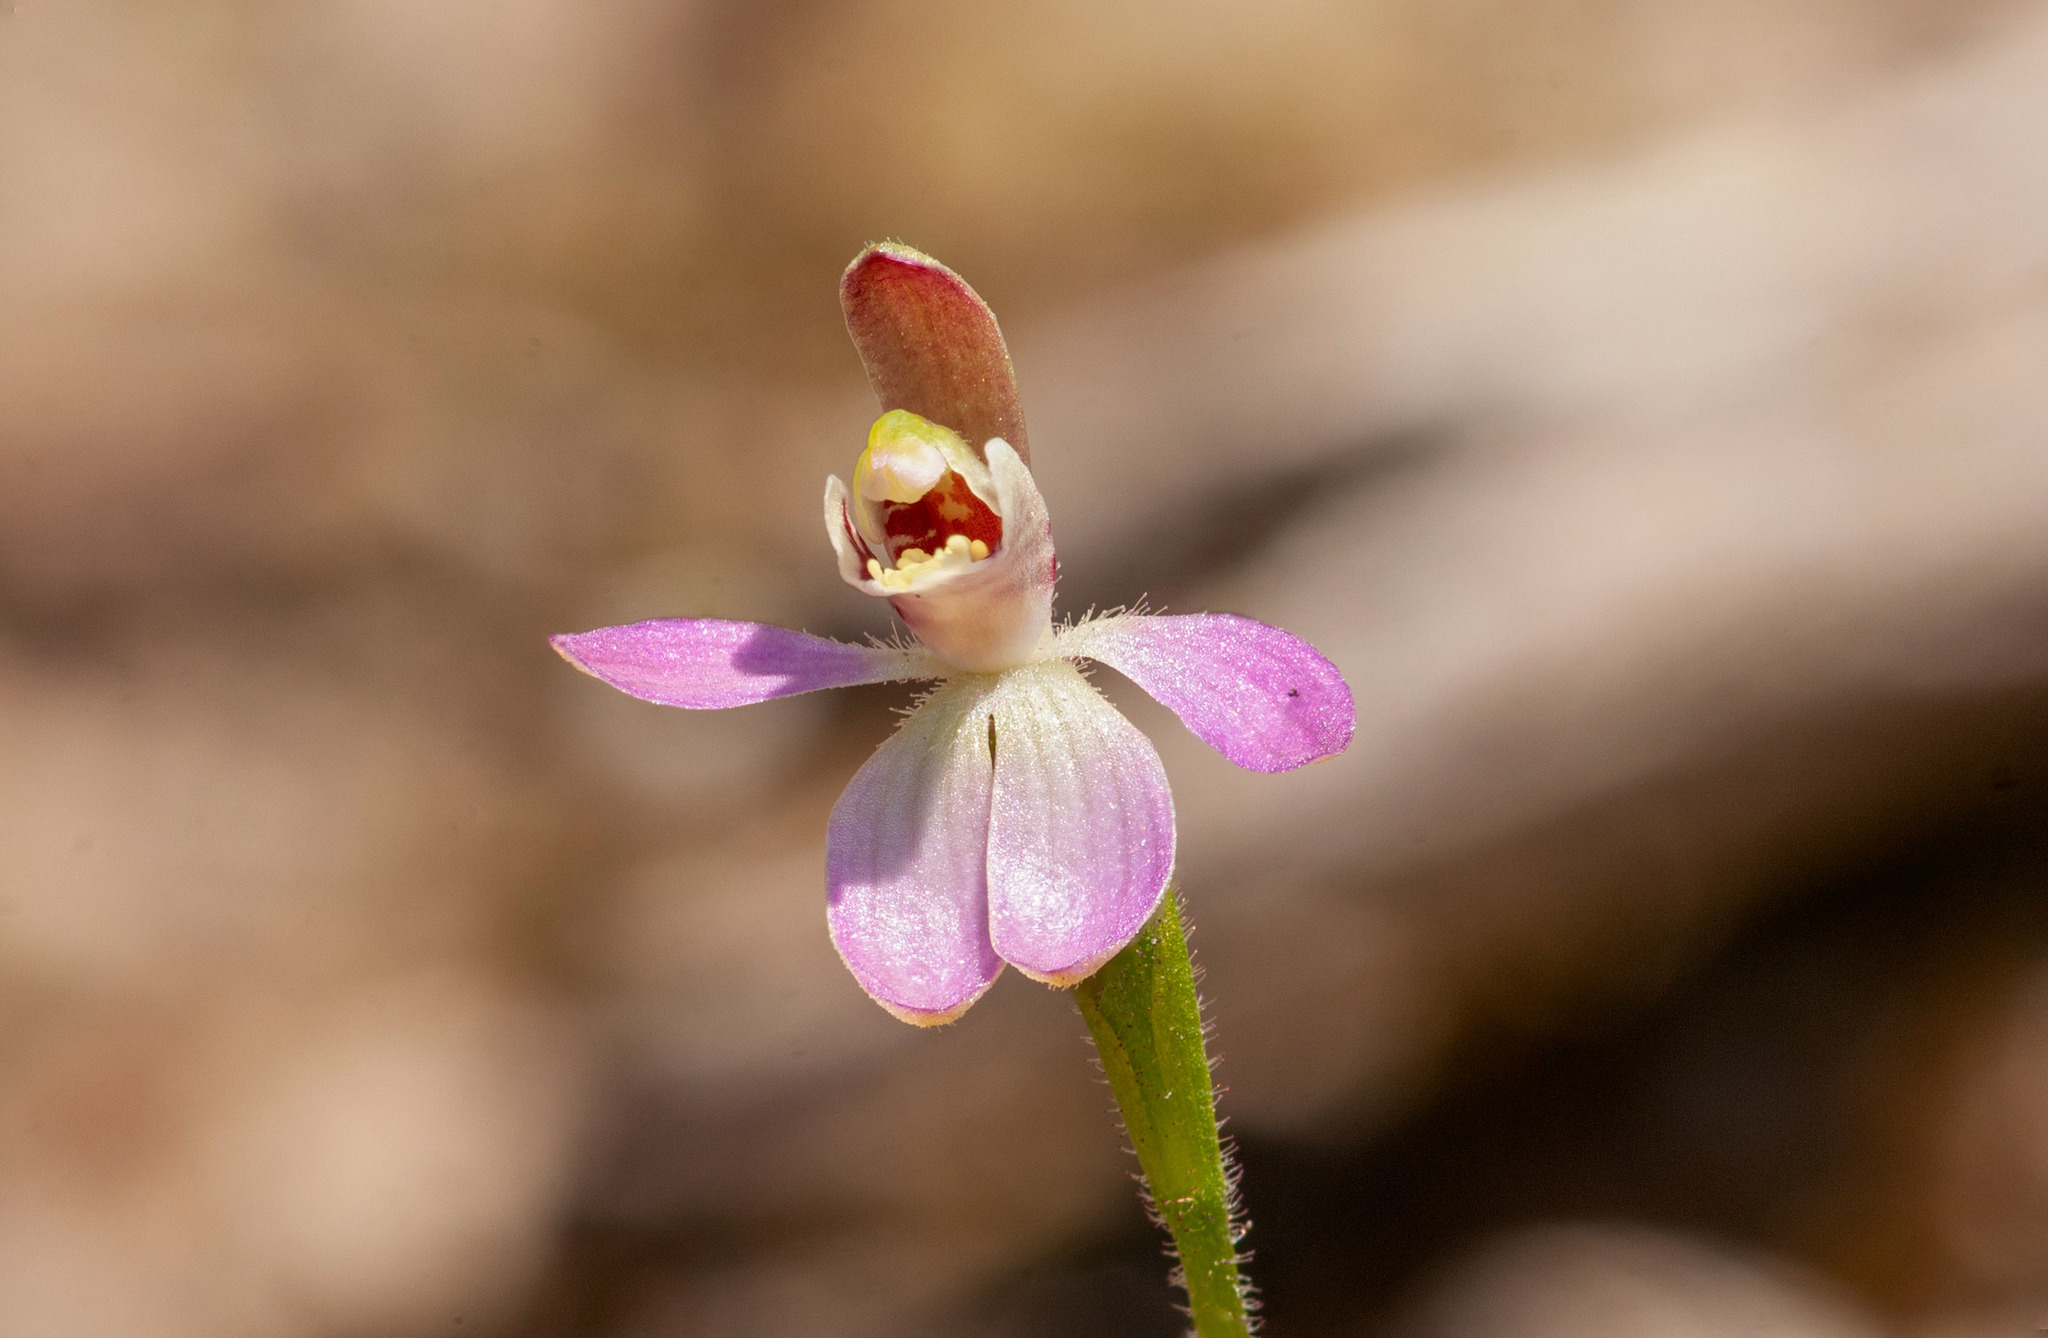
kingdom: Plantae
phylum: Tracheophyta
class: Liliopsida
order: Asparagales
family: Orchidaceae
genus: Caladenia
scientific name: Caladenia pusilla
